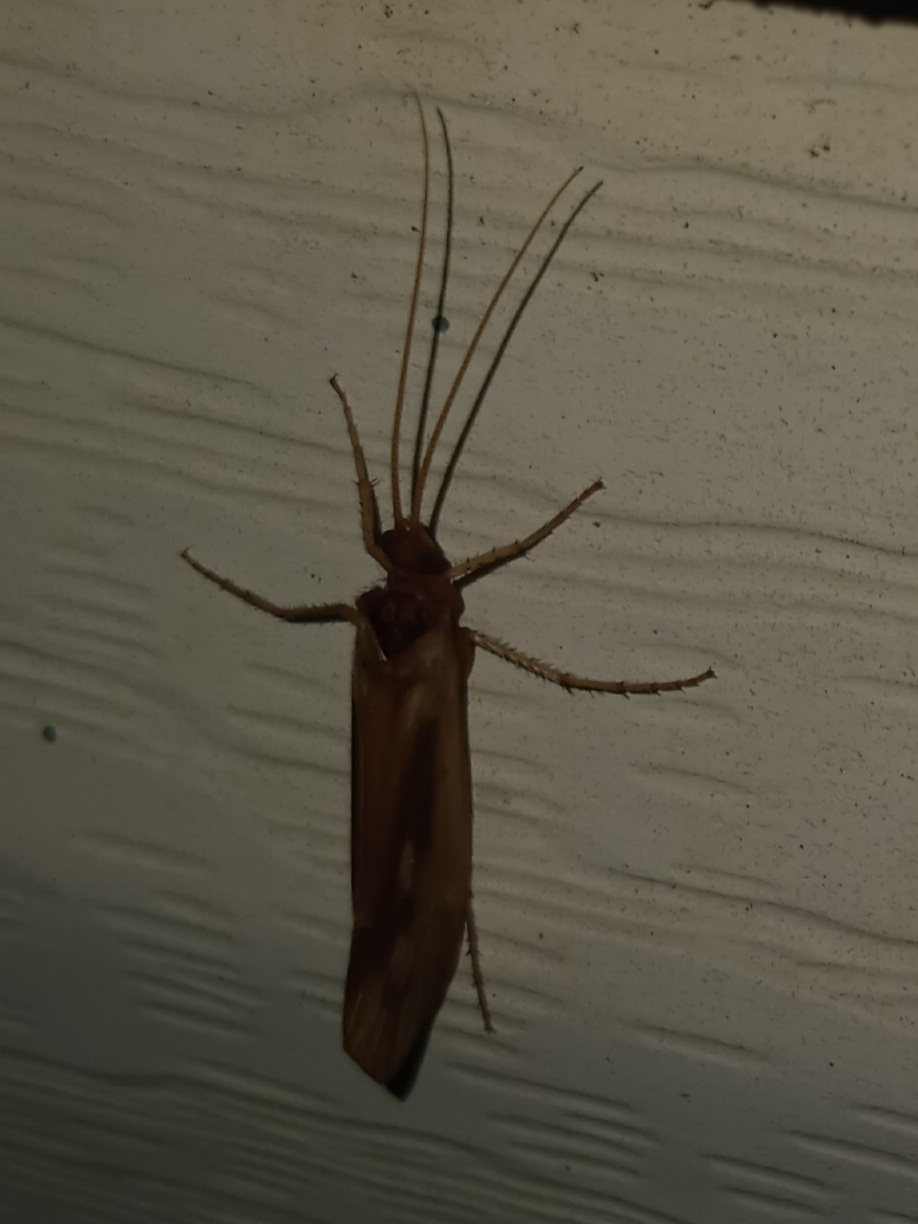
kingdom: Animalia
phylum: Arthropoda
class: Insecta
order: Trichoptera
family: Limnephilidae
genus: Platycentropus
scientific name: Platycentropus radiatus
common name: Chocolate-and-cream sedge
